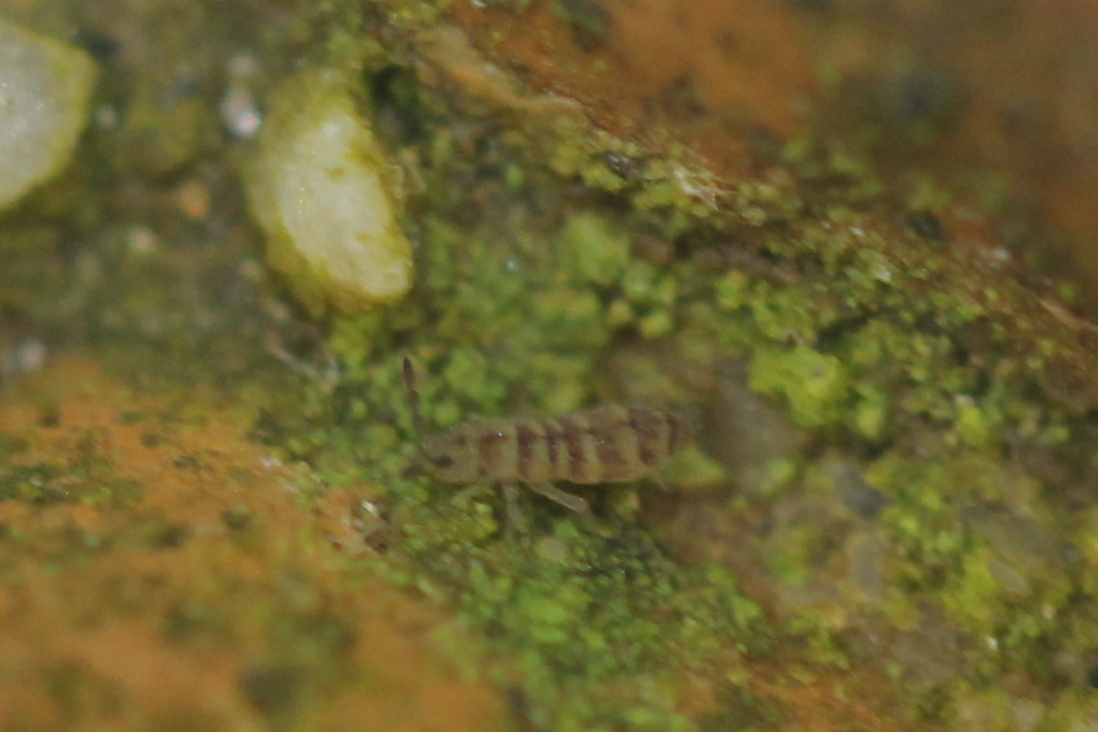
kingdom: Animalia
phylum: Arthropoda
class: Collembola
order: Entomobryomorpha
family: Isotomidae
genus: Isotomurus
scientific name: Isotomurus bimus
